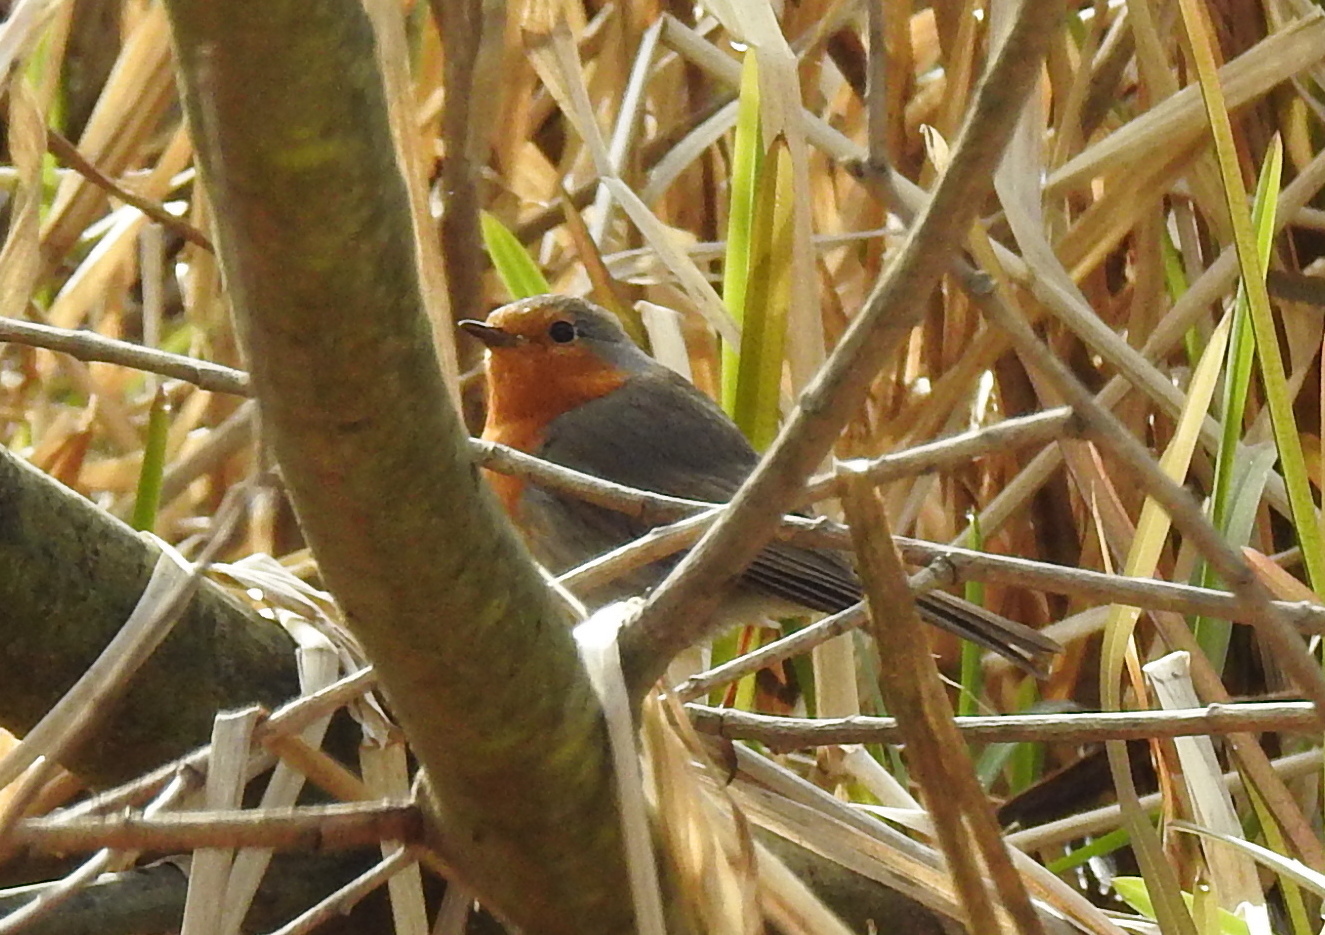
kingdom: Animalia
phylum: Chordata
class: Aves
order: Passeriformes
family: Muscicapidae
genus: Erithacus
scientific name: Erithacus rubecula
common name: European robin
